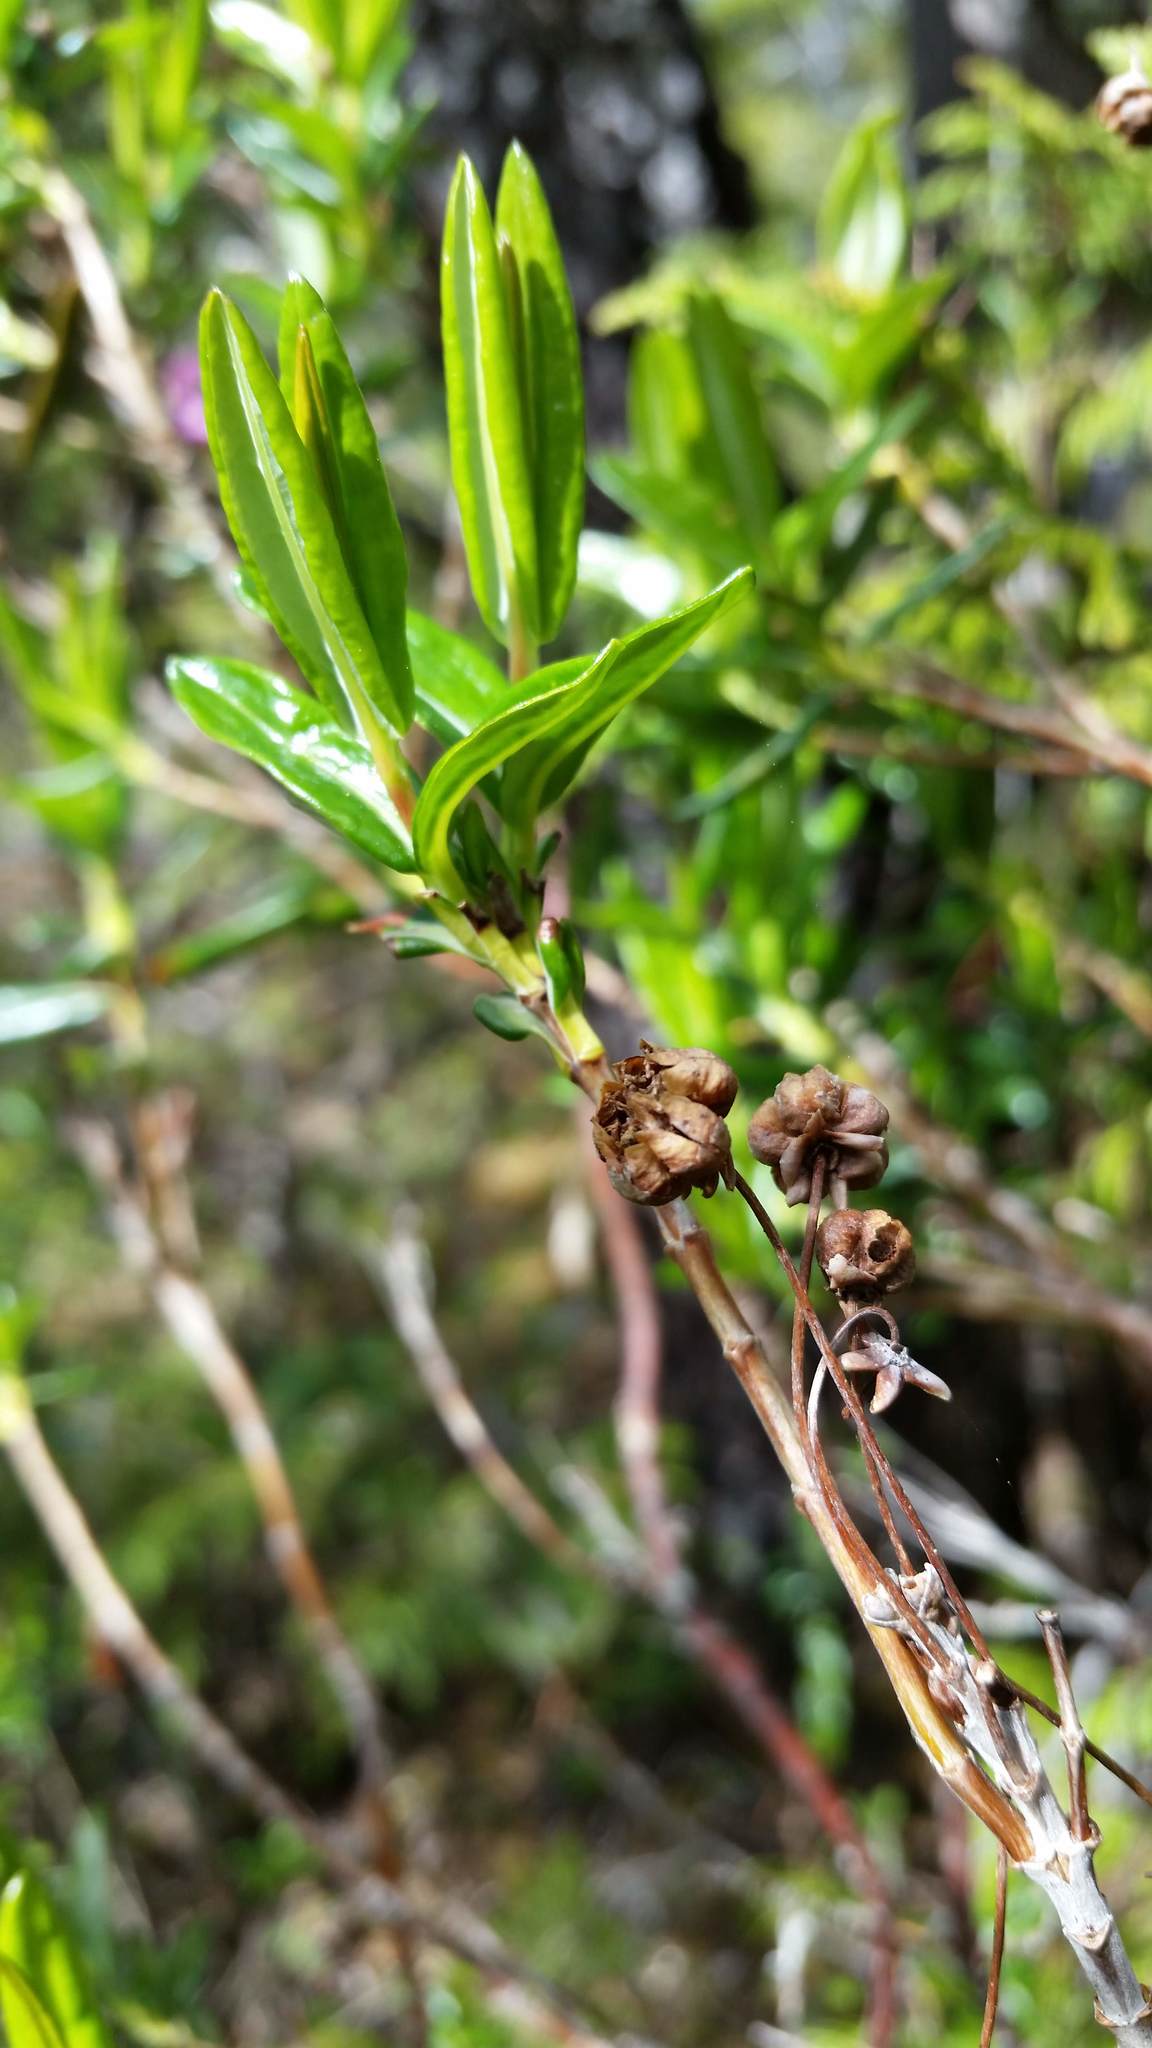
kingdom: Plantae
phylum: Tracheophyta
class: Magnoliopsida
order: Ericales
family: Ericaceae
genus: Kalmia
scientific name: Kalmia microphylla
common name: Alpine bog laurel
